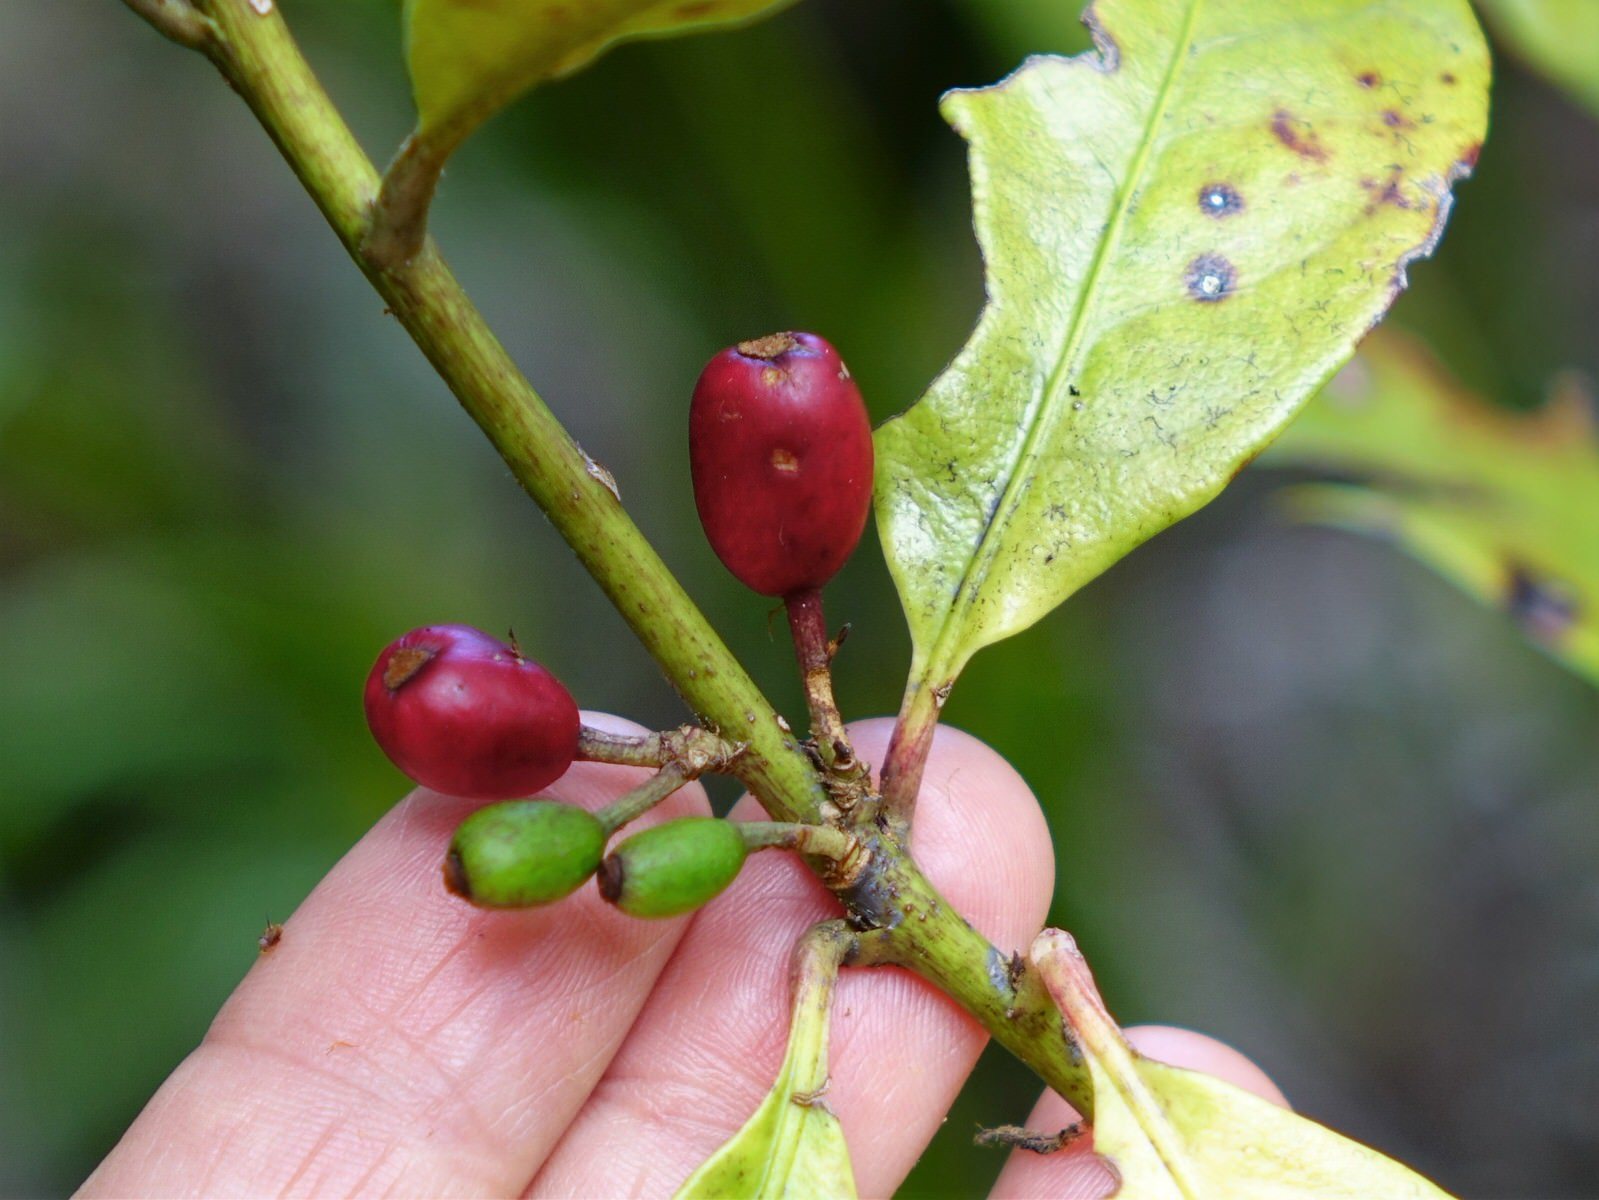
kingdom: Plantae
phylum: Tracheophyta
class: Magnoliopsida
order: Asterales
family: Alseuosmiaceae
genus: Alseuosmia
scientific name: Alseuosmia macrophylla
